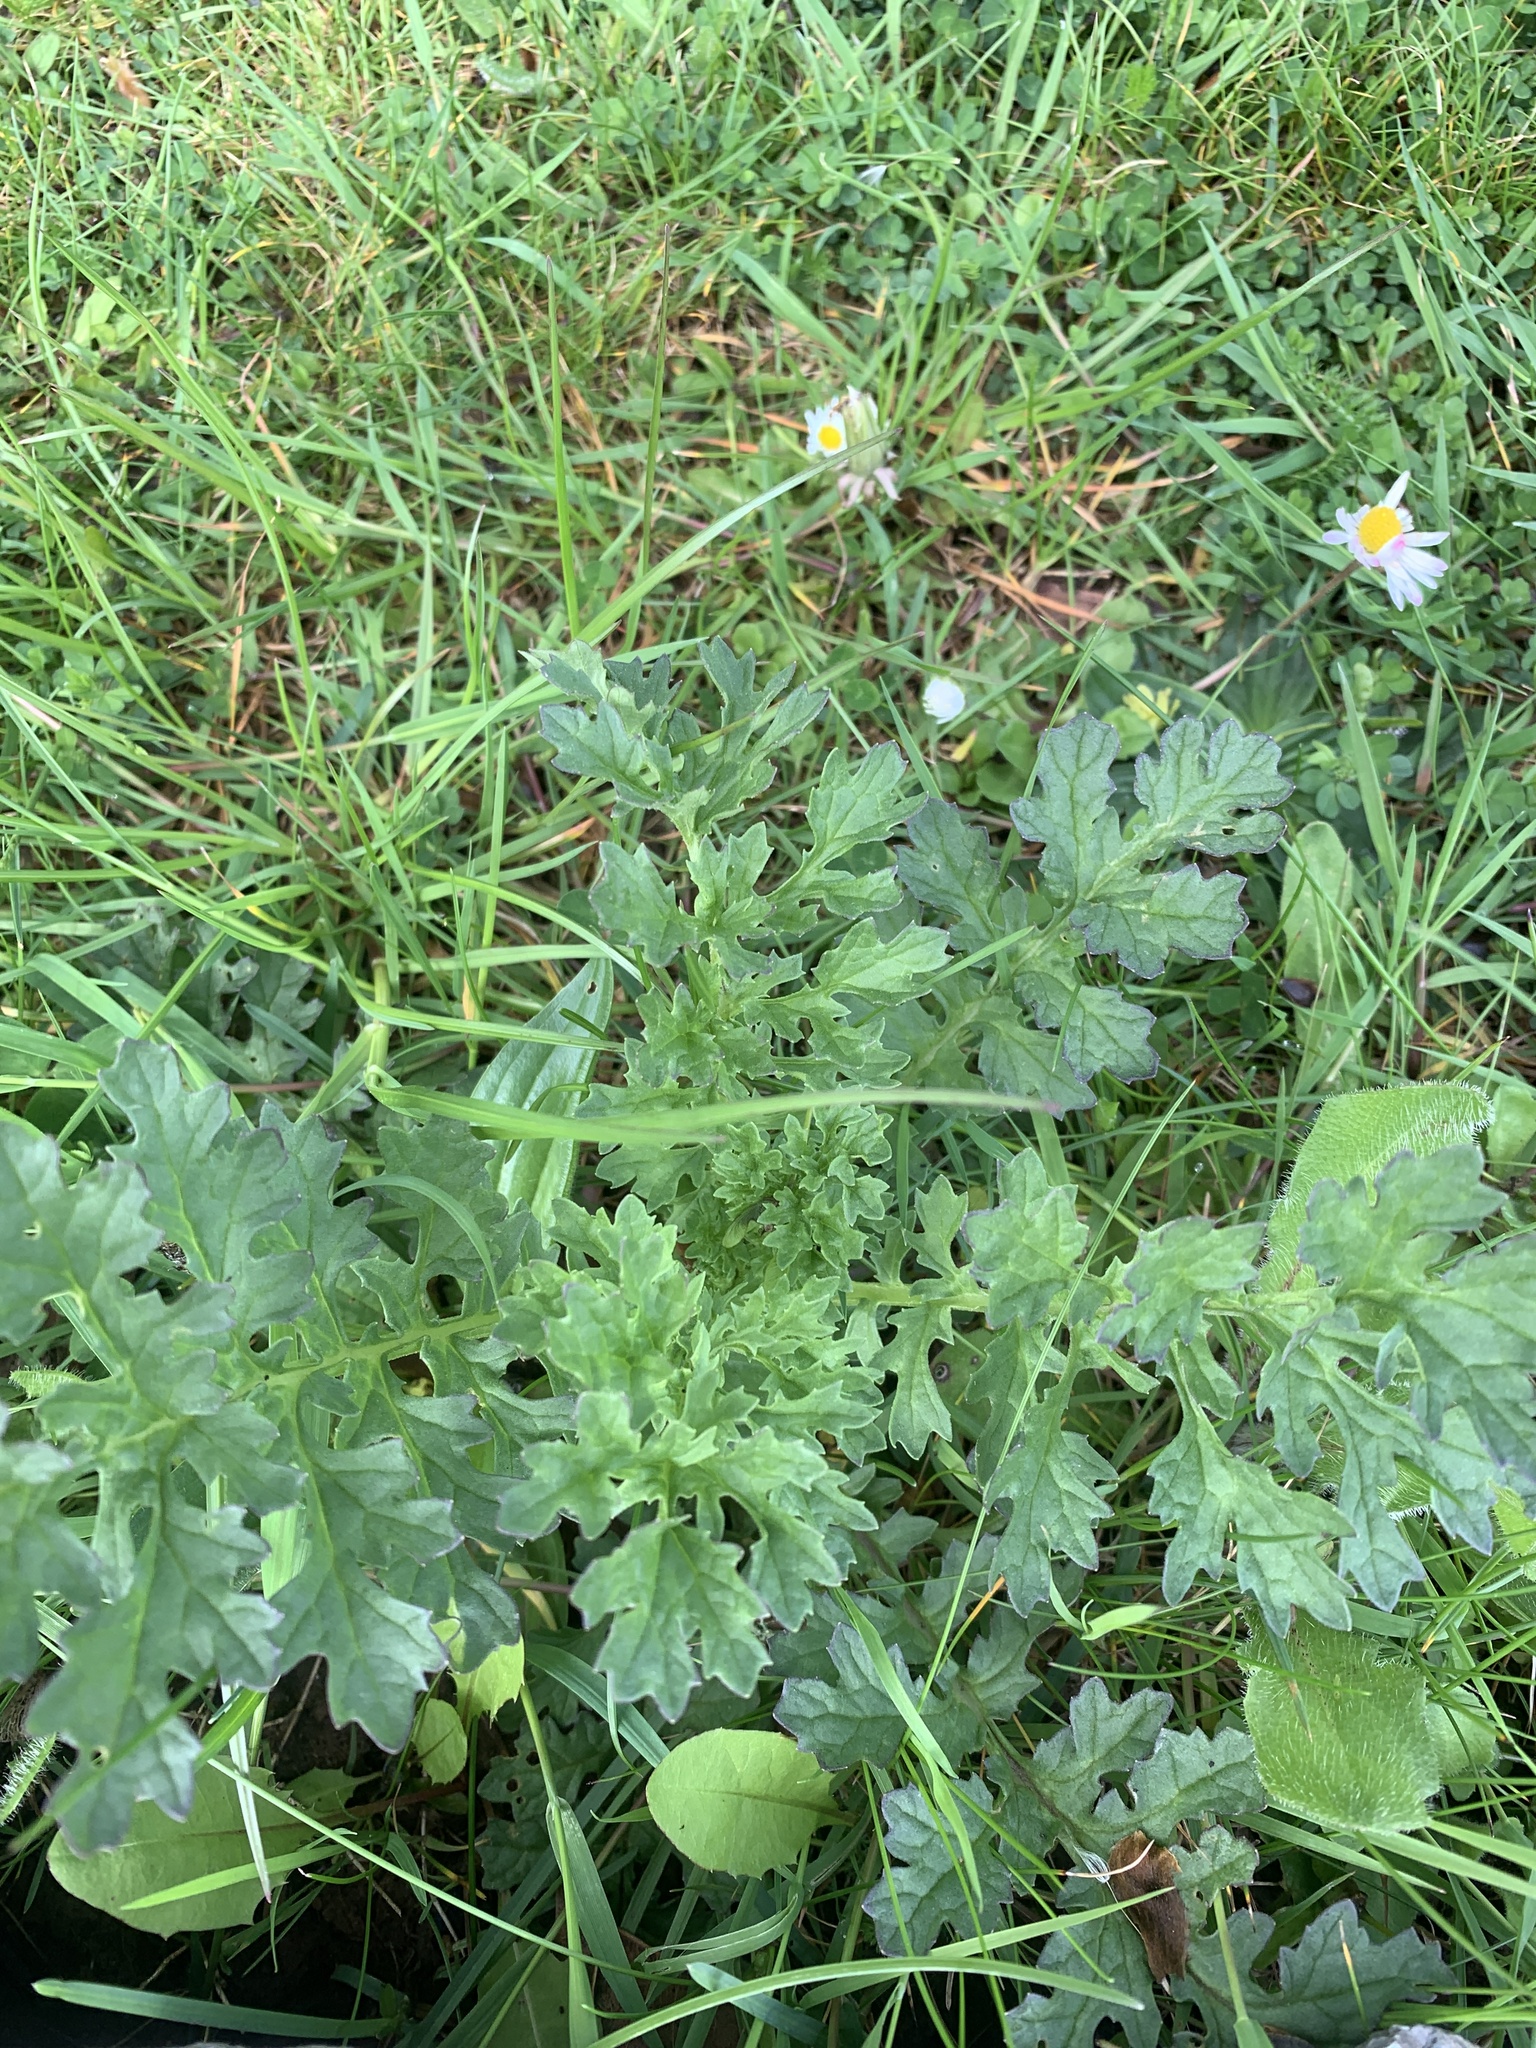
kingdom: Plantae
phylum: Tracheophyta
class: Magnoliopsida
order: Asterales
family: Asteraceae
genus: Jacobaea
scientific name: Jacobaea vulgaris
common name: Stinking willie
